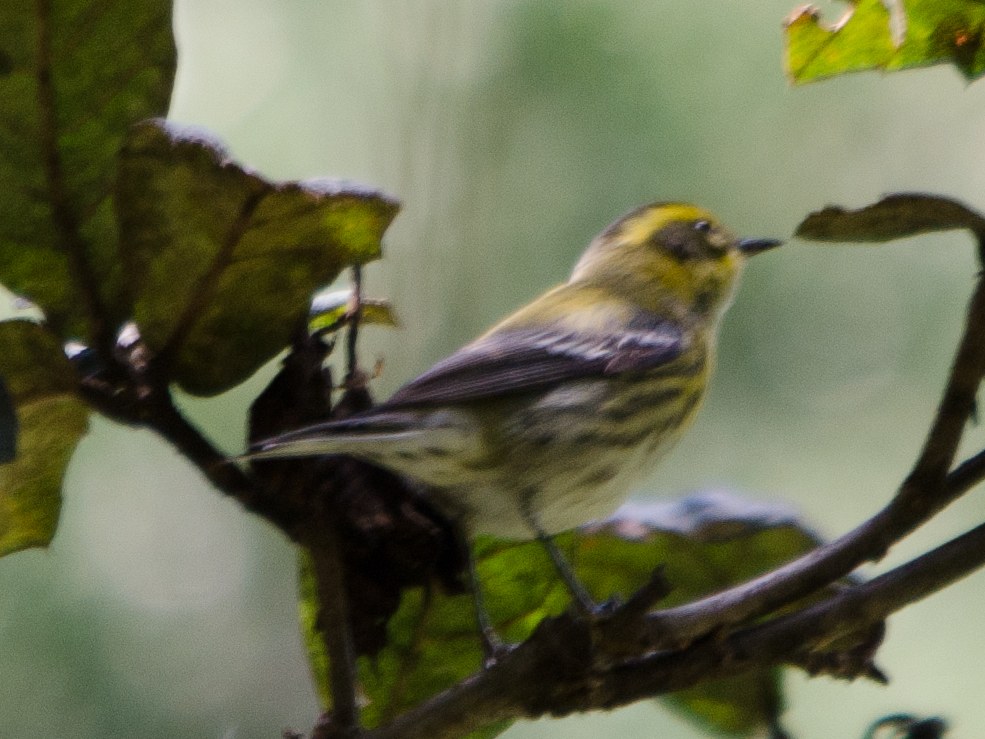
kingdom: Animalia
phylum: Chordata
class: Aves
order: Passeriformes
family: Parulidae
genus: Setophaga
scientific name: Setophaga townsendi
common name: Townsend's warbler
